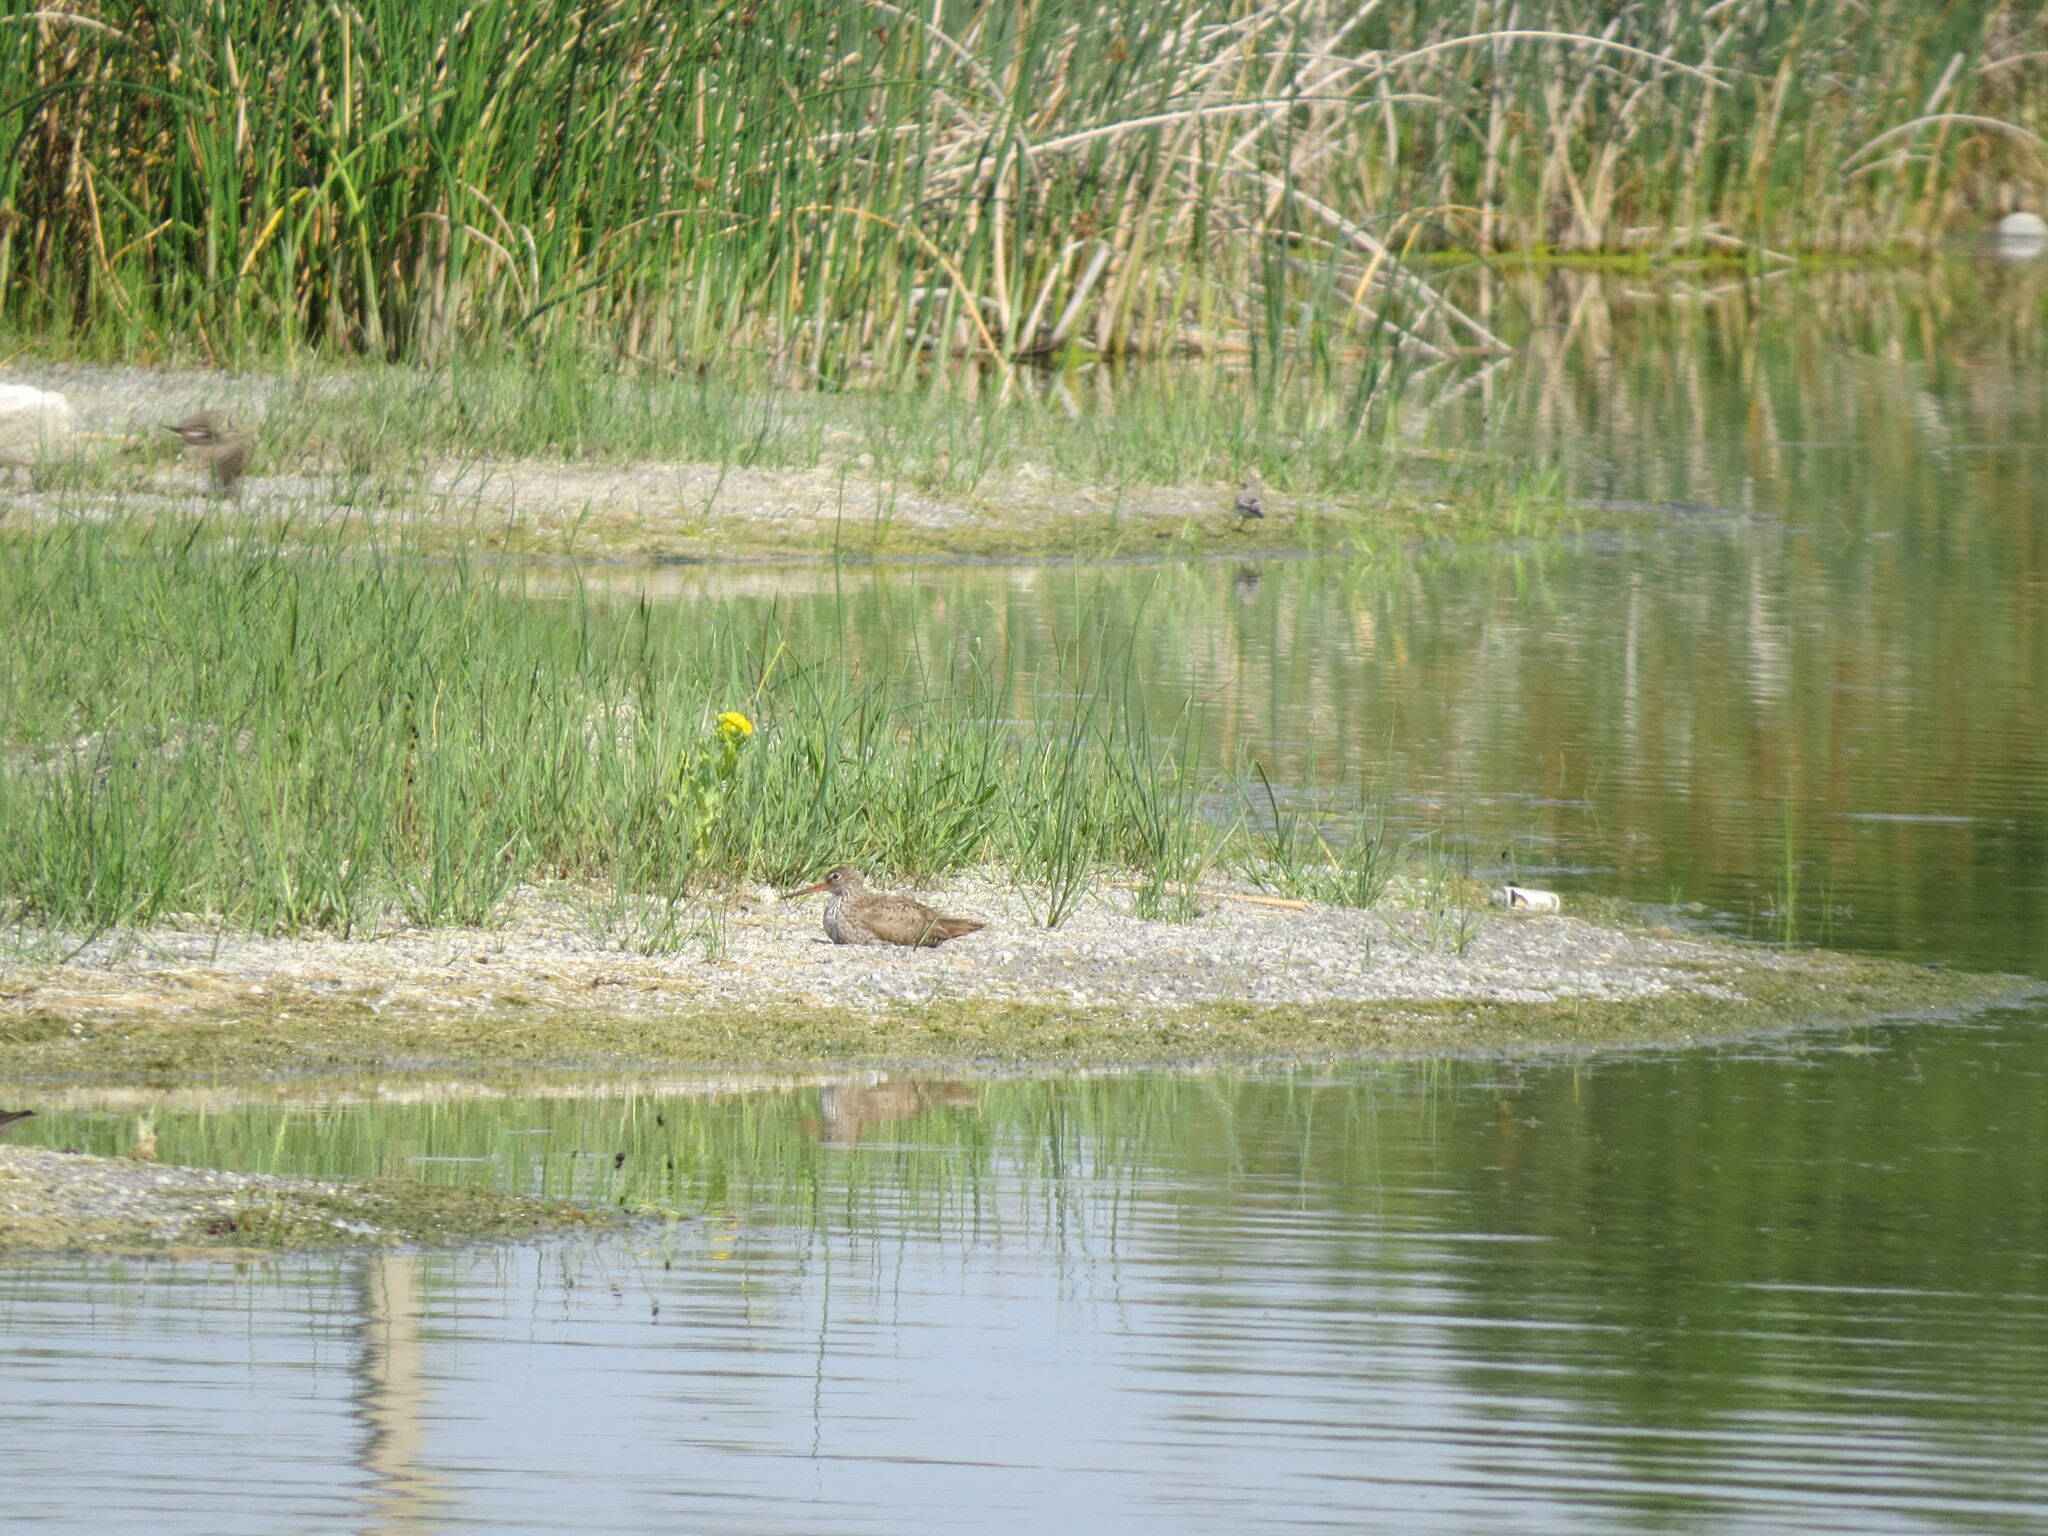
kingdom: Animalia
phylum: Chordata
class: Aves
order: Charadriiformes
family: Scolopacidae
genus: Tringa
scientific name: Tringa totanus
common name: Common redshank
